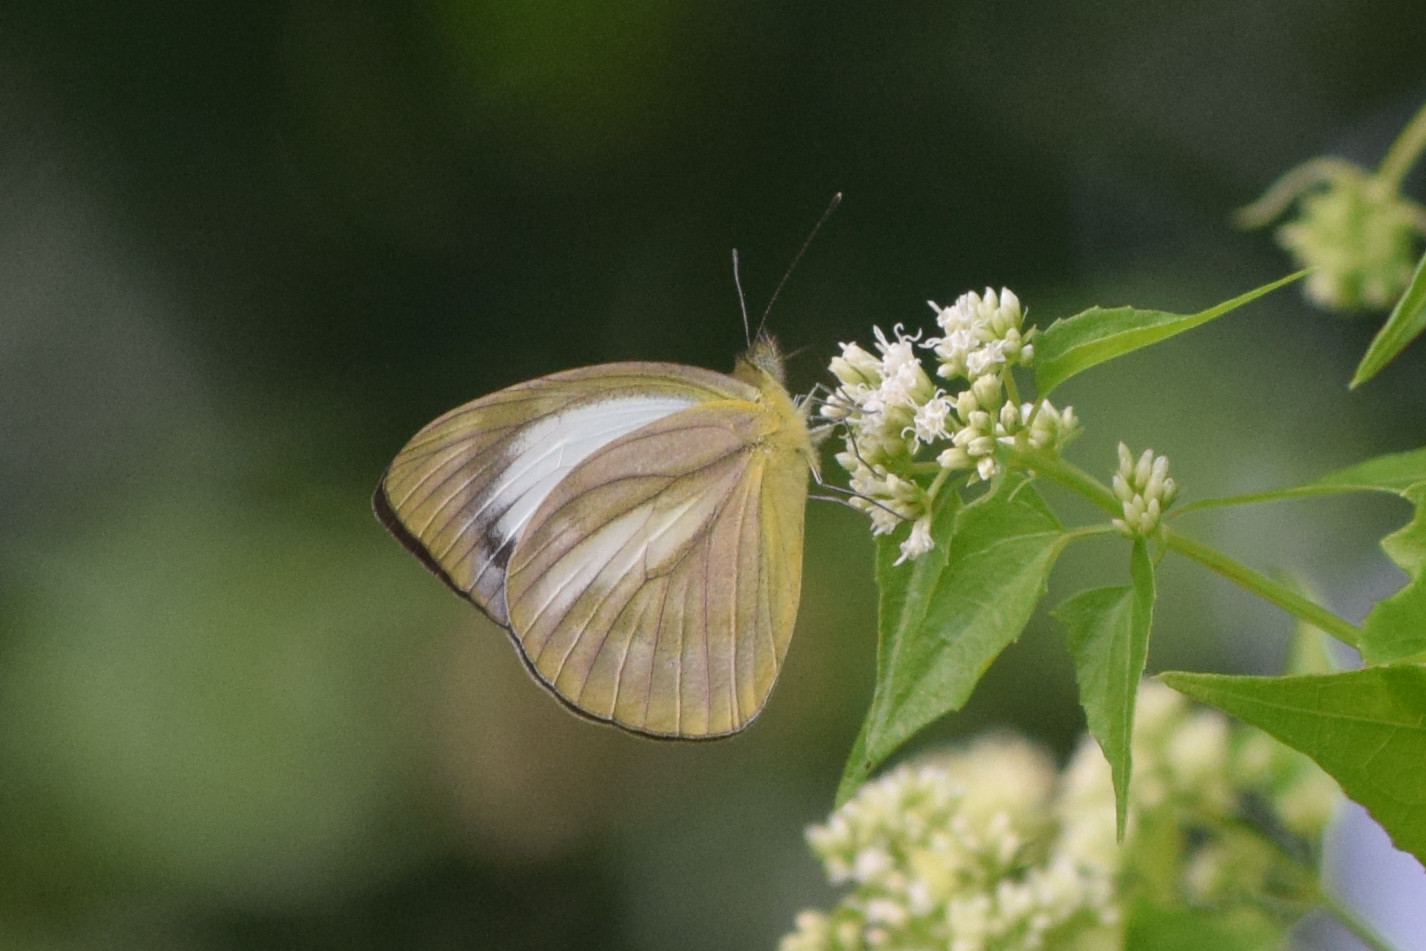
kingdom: Animalia
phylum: Arthropoda
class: Insecta
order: Lepidoptera
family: Pieridae
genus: Cepora
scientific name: Cepora nadina
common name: Lesser gull
